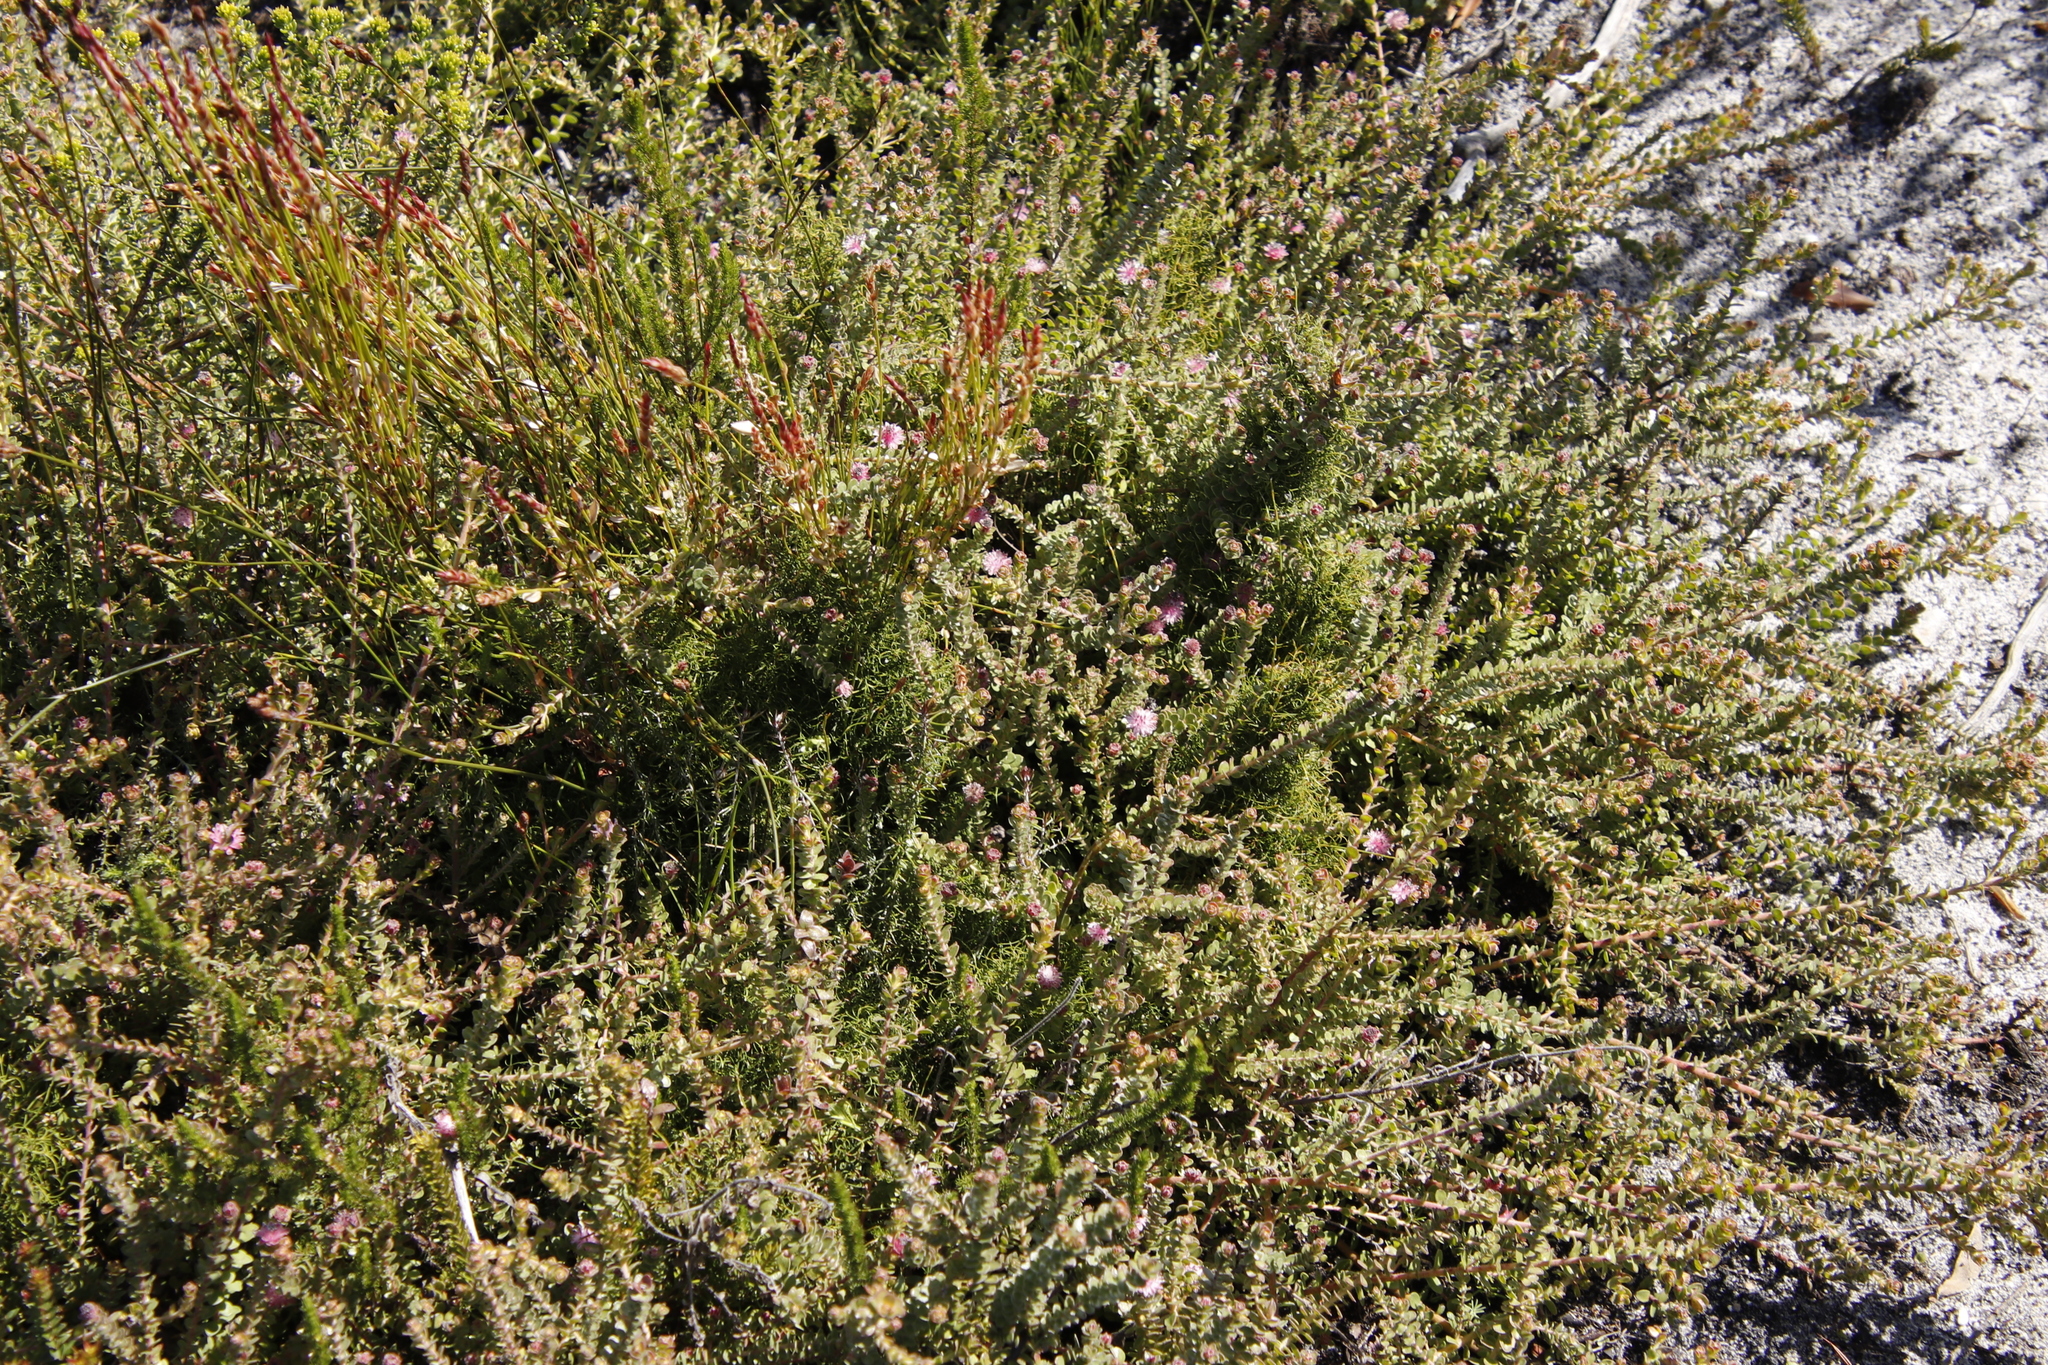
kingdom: Plantae
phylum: Tracheophyta
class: Magnoliopsida
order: Proteales
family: Proteaceae
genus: Diastella
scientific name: Diastella divaricata
